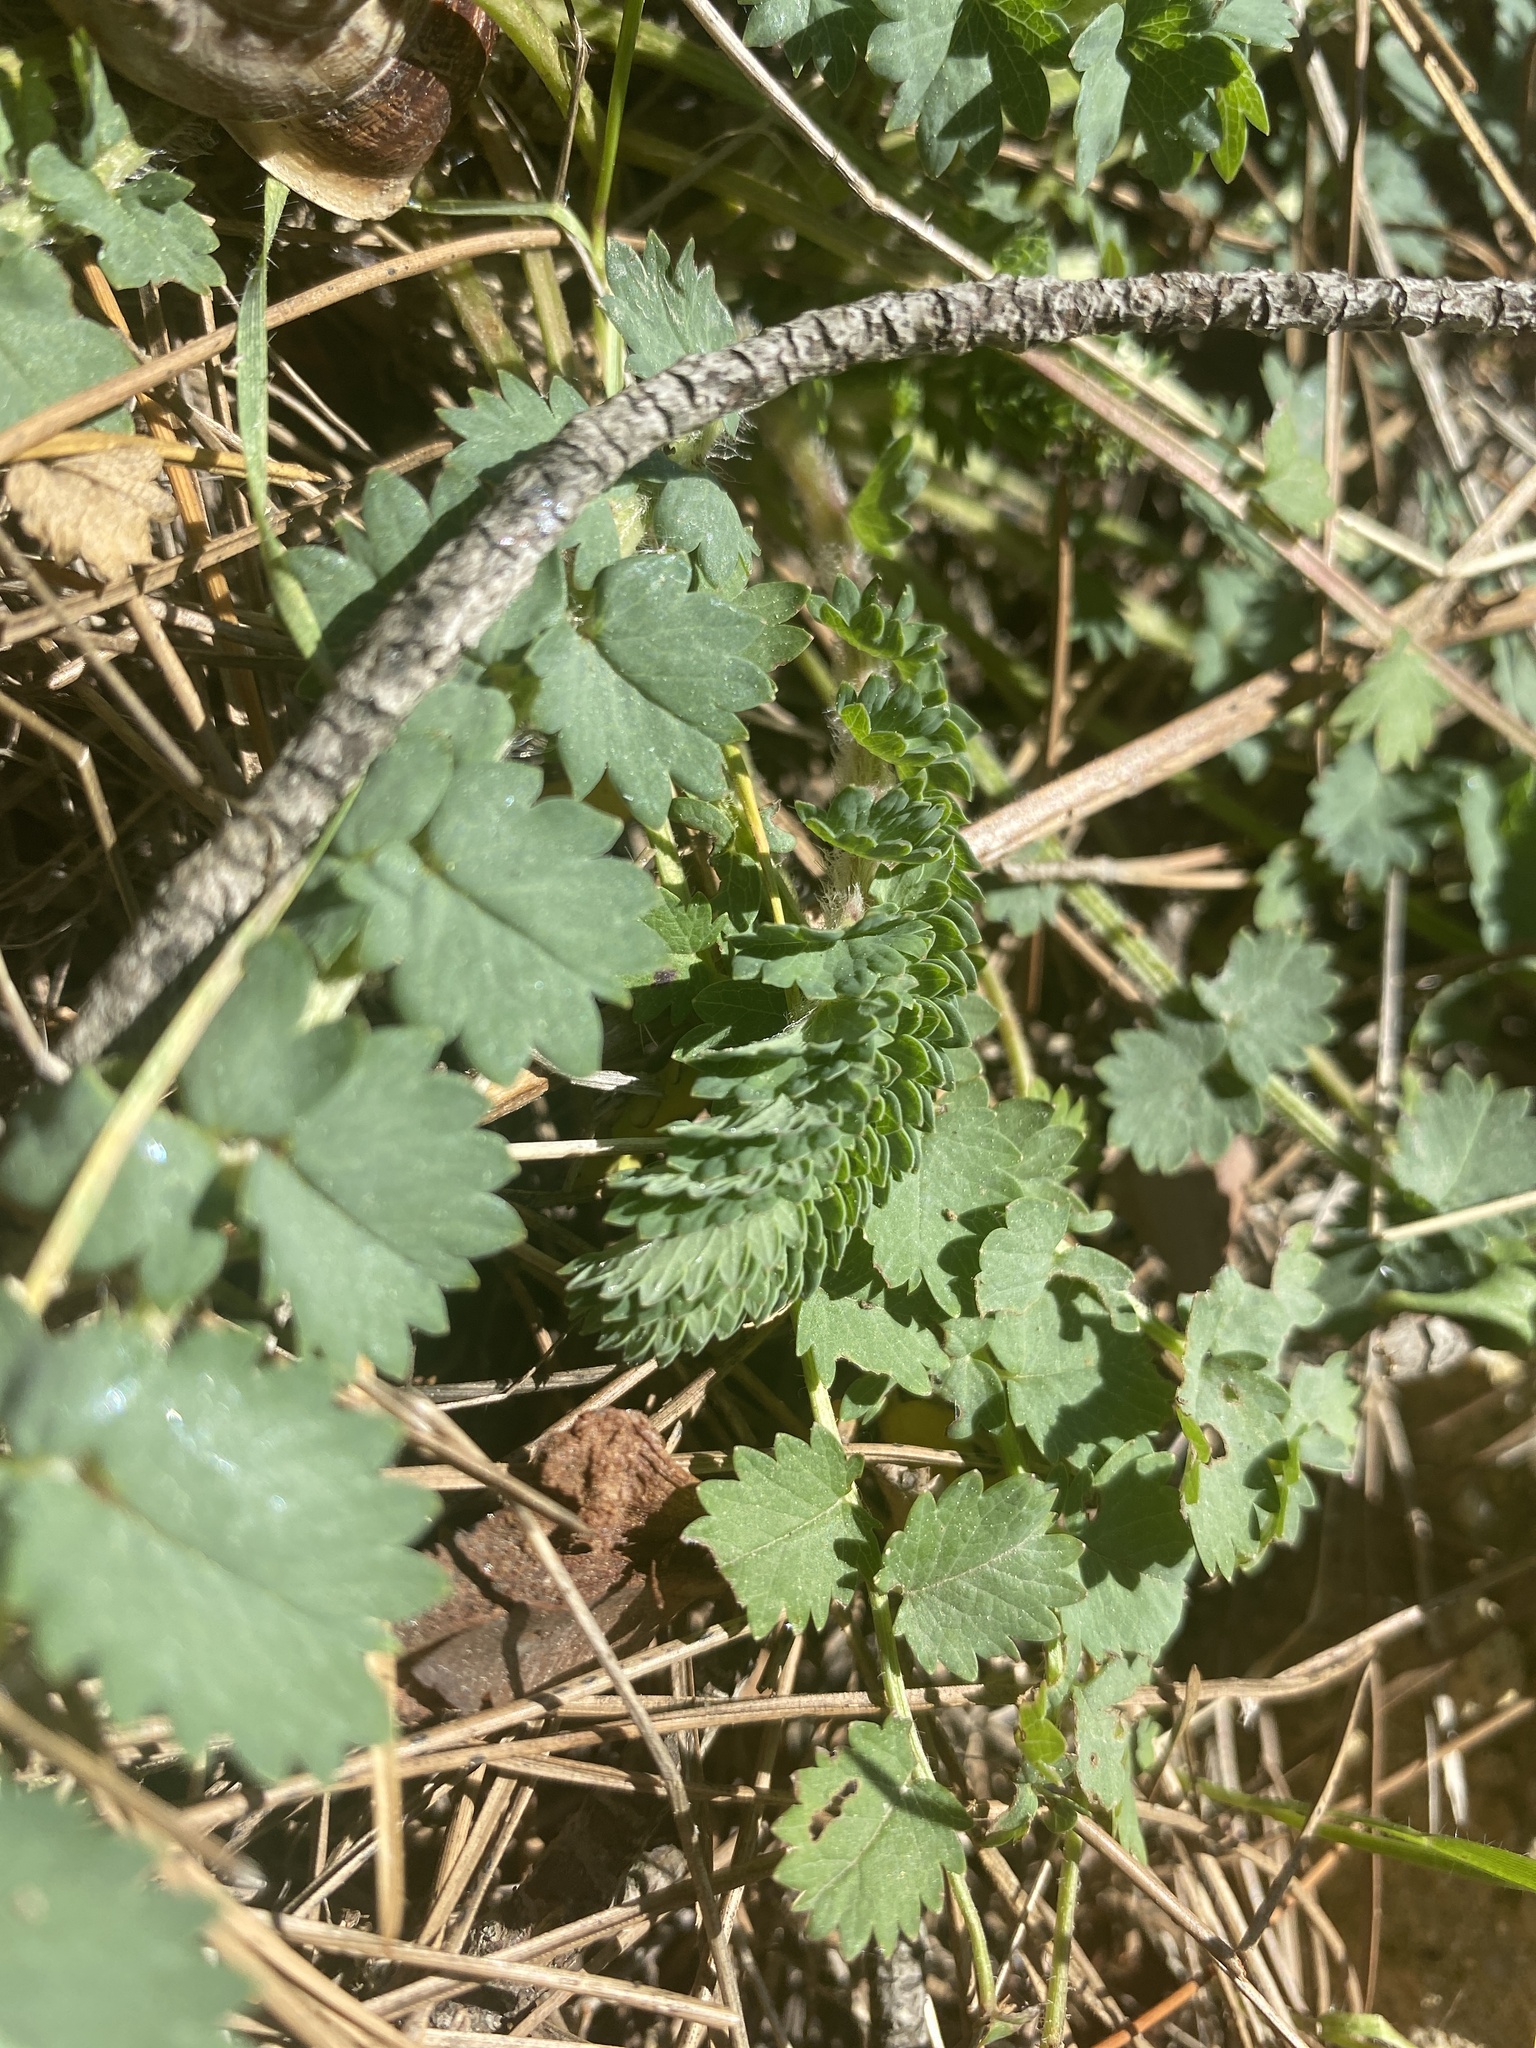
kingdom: Plantae
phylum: Tracheophyta
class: Magnoliopsida
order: Rosales
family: Rosaceae
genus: Poterium
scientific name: Poterium sanguisorba
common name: Salad burnet
